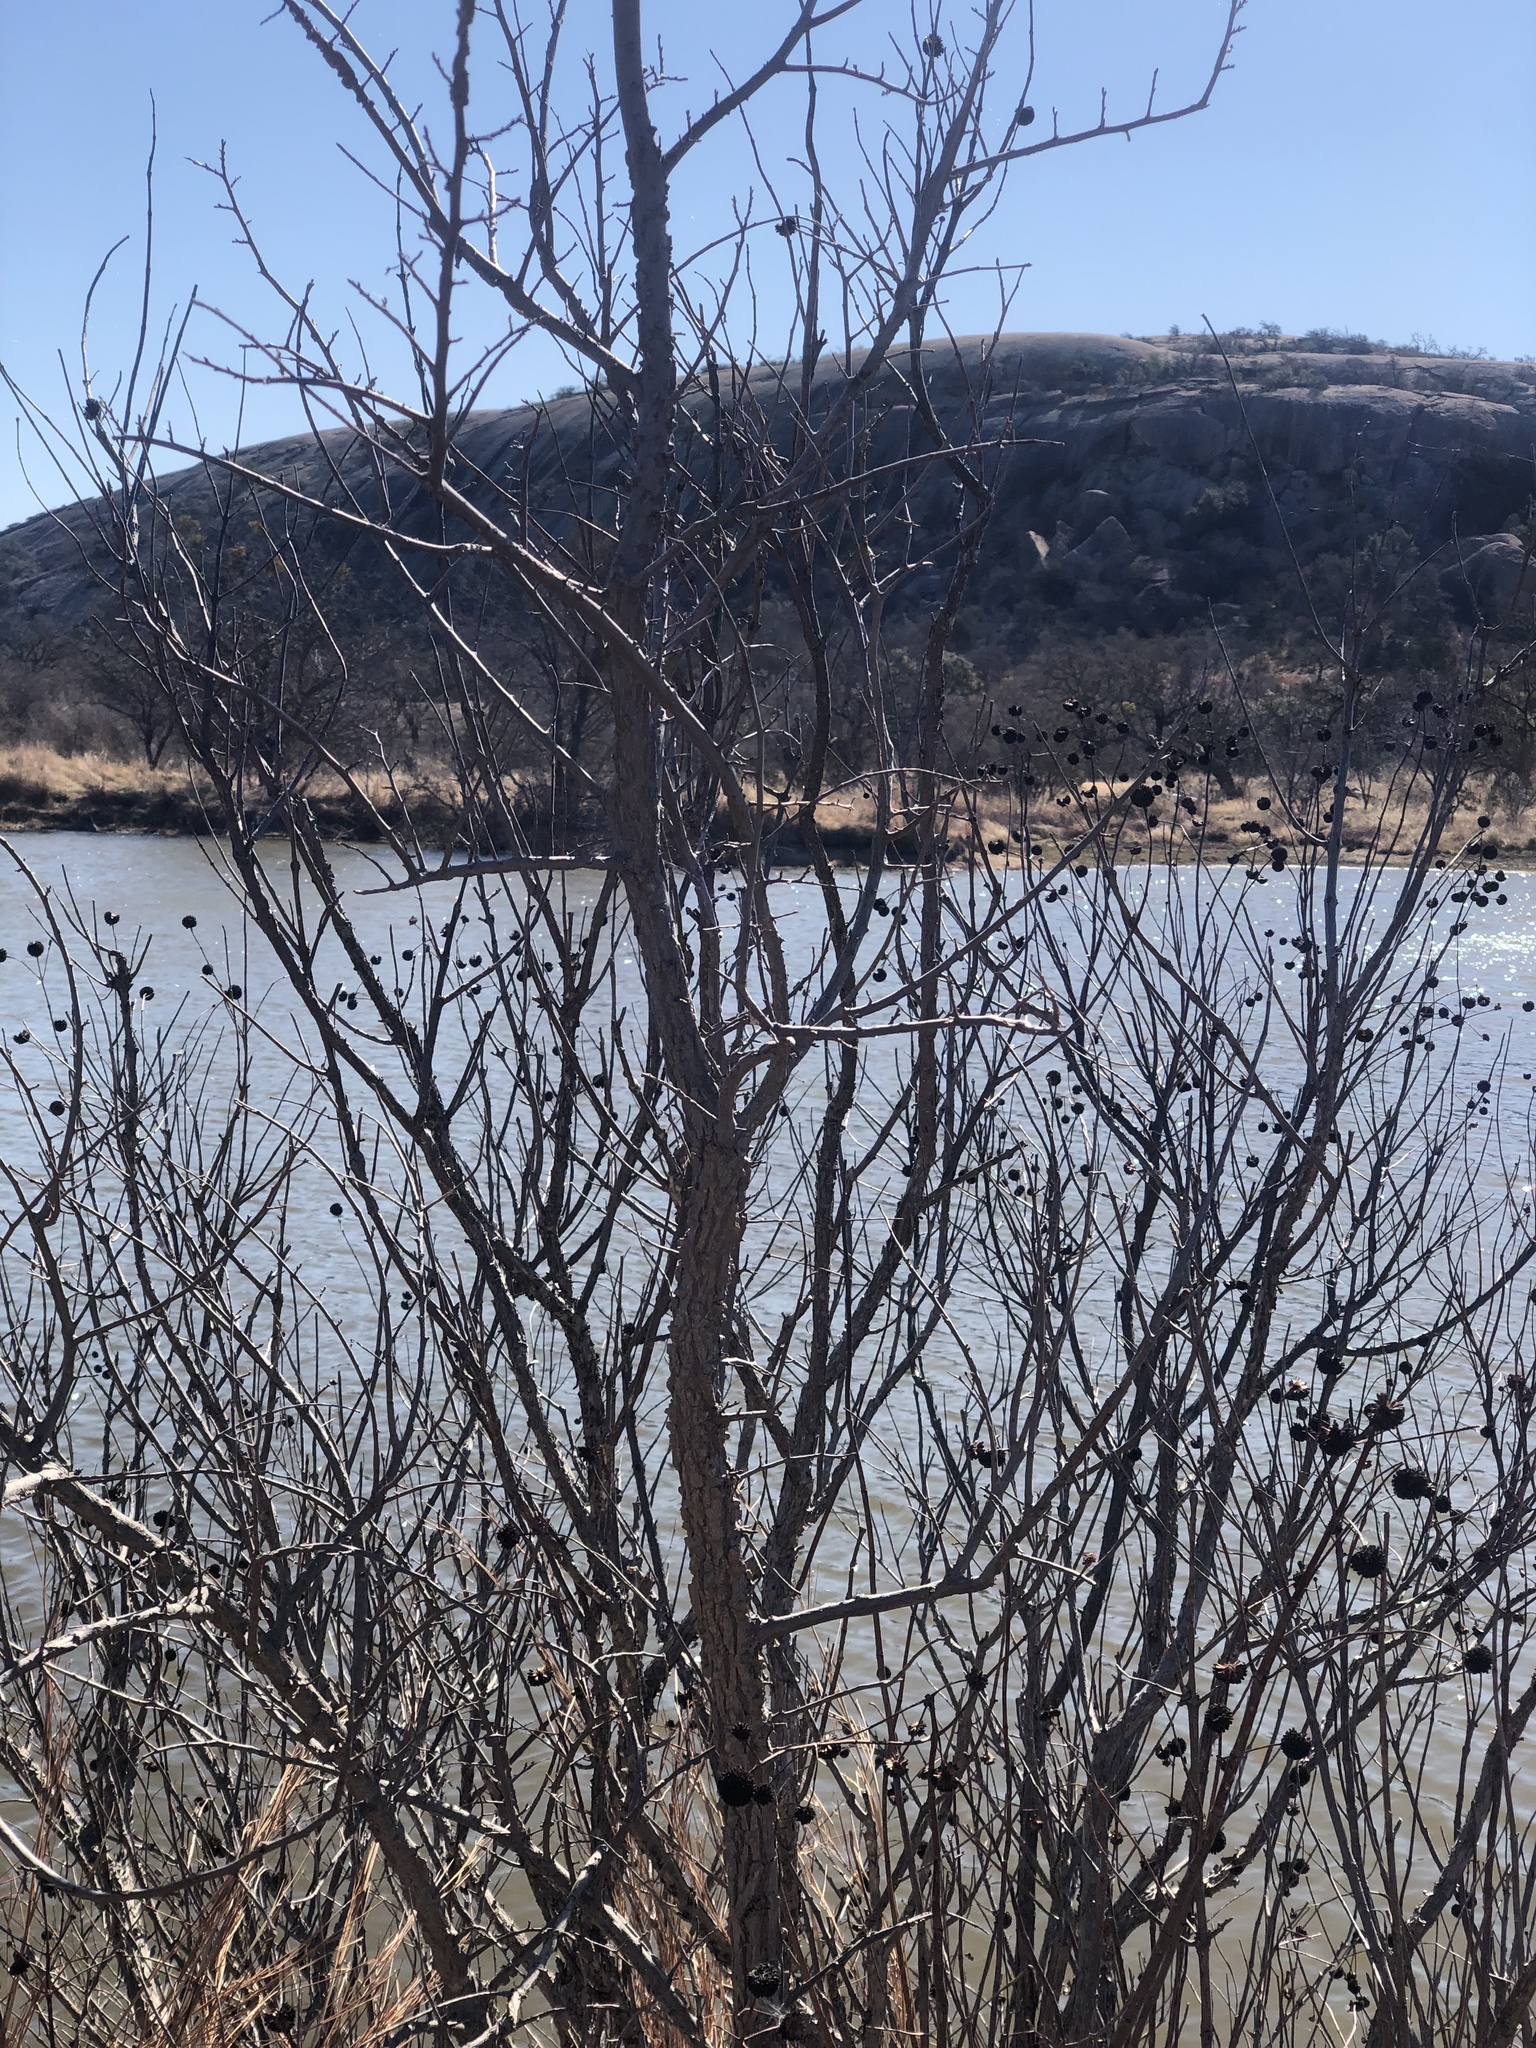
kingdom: Plantae
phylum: Tracheophyta
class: Magnoliopsida
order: Gentianales
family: Rubiaceae
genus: Cephalanthus
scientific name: Cephalanthus occidentalis
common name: Button-willow
